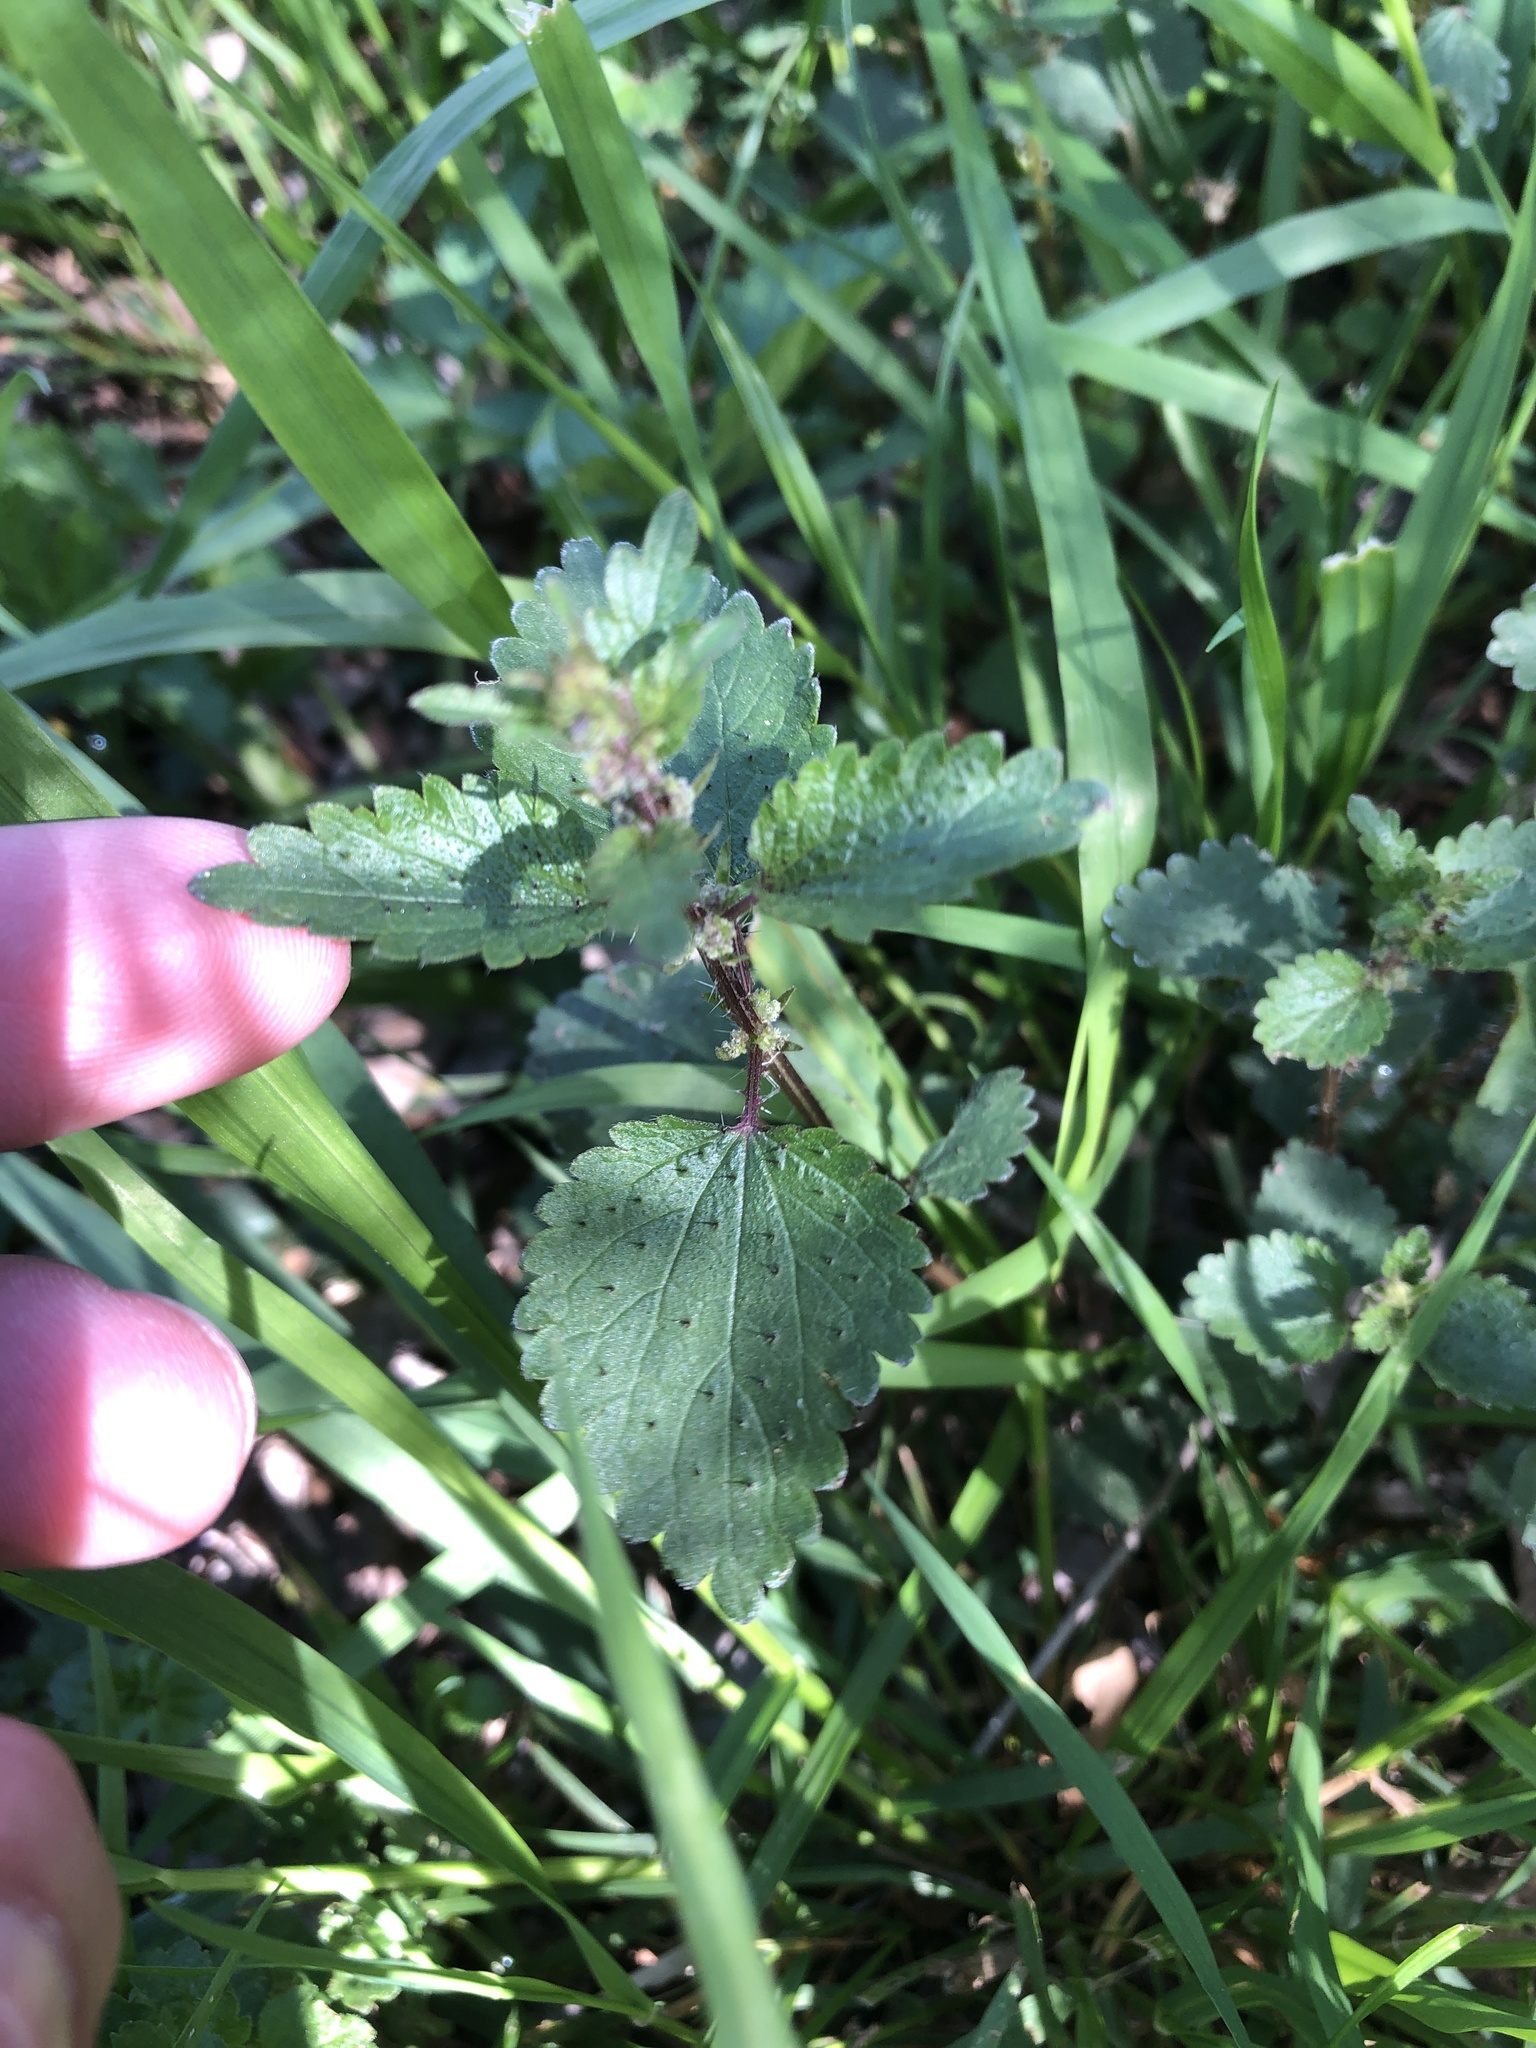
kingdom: Plantae
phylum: Tracheophyta
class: Magnoliopsida
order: Rosales
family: Urticaceae
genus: Urtica
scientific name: Urtica chamaedryoides
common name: Heart-leaf nettle
